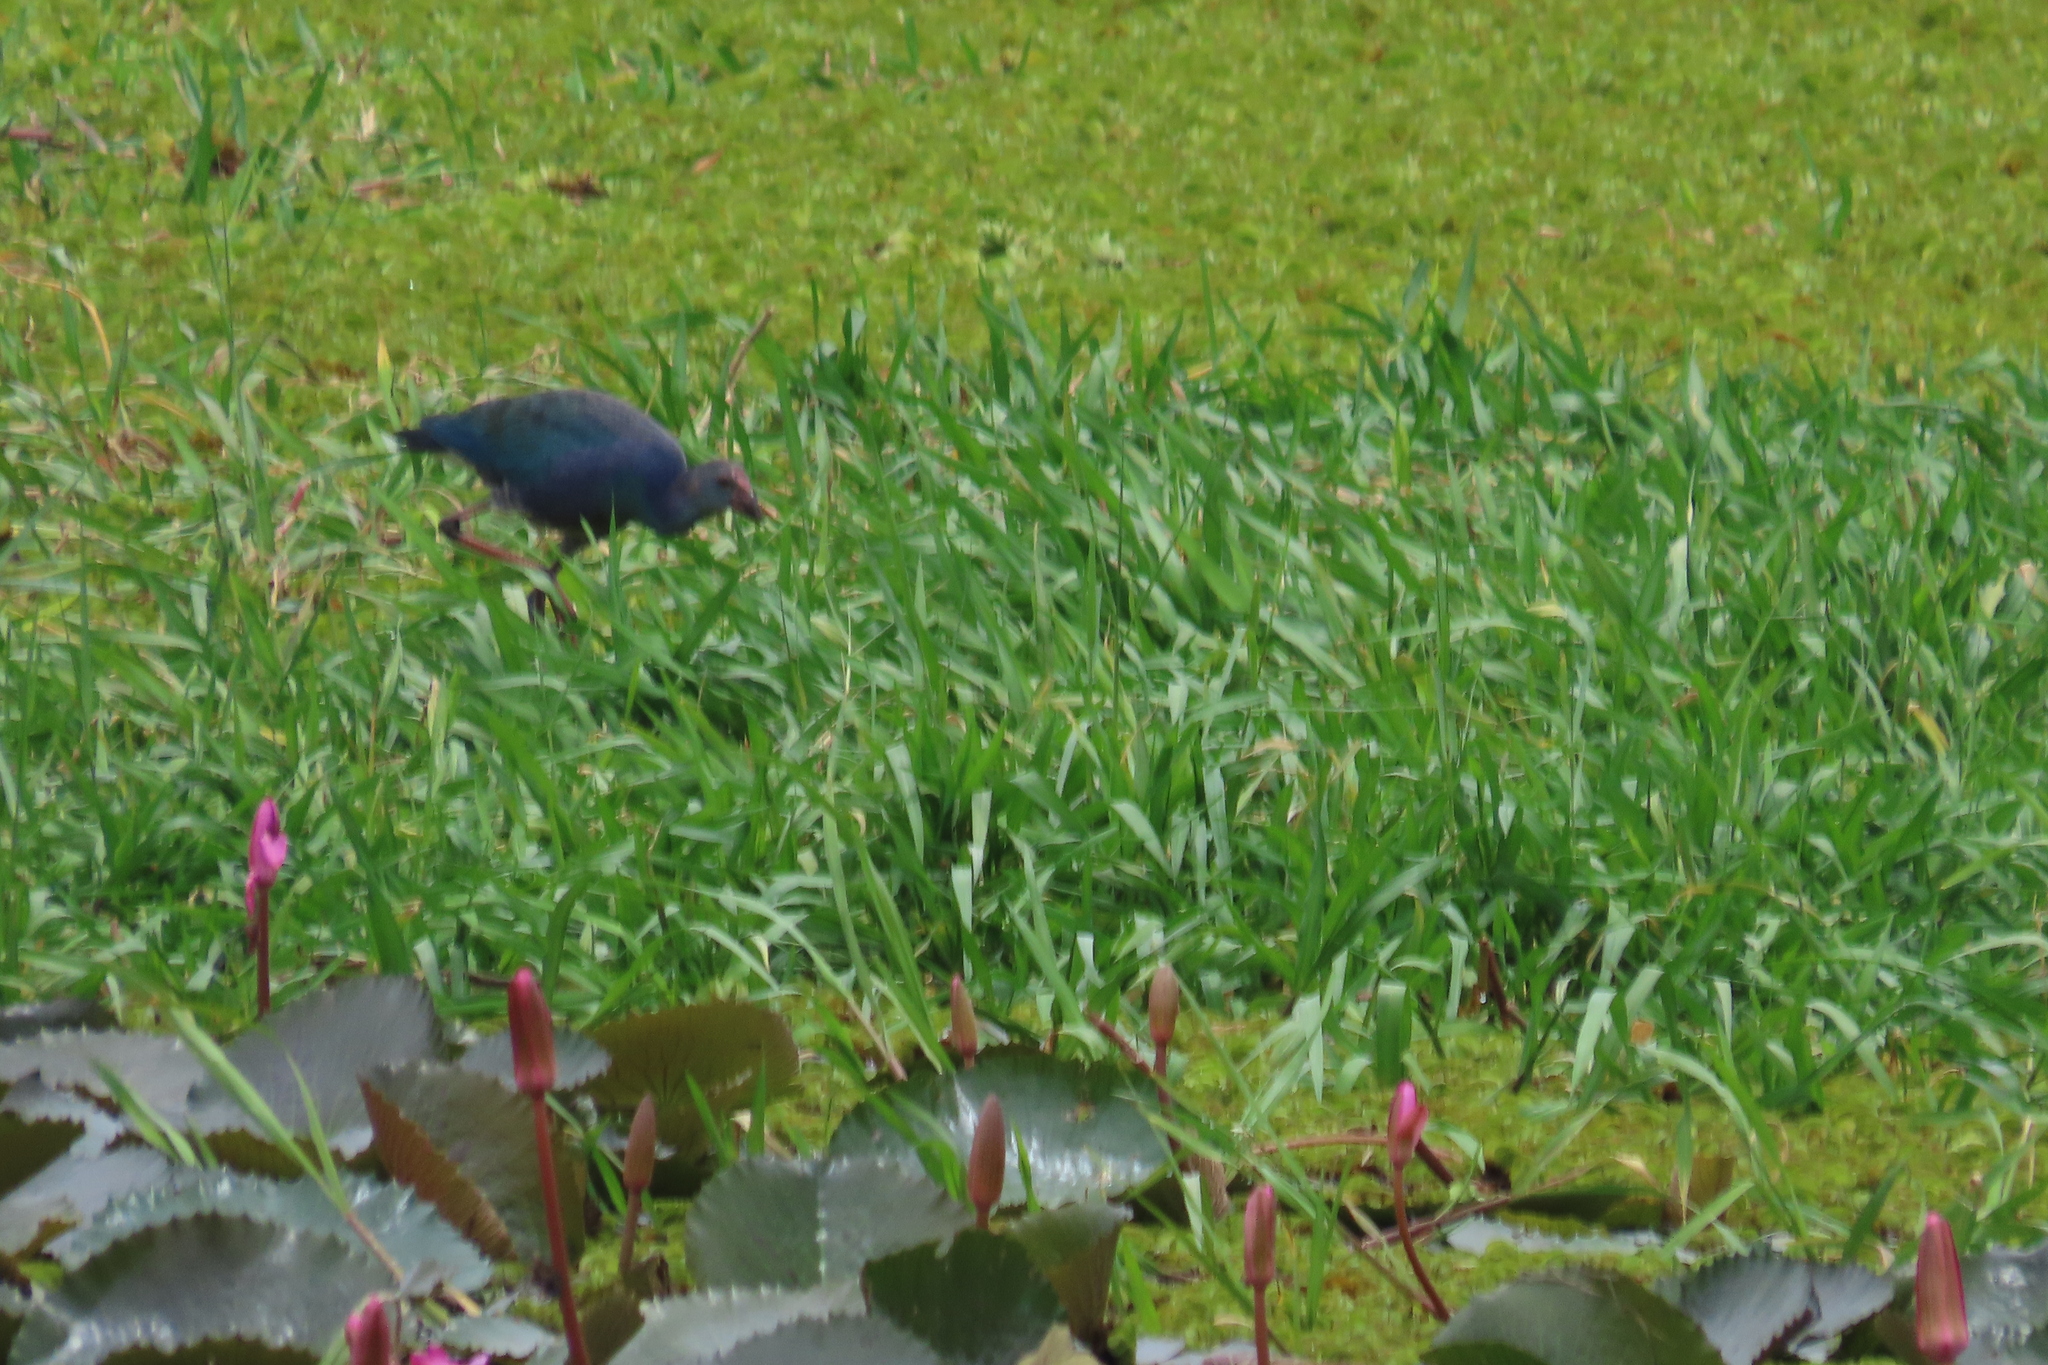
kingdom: Animalia
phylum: Chordata
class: Aves
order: Gruiformes
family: Rallidae
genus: Porphyrio
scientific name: Porphyrio porphyrio
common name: Purple swamphen
